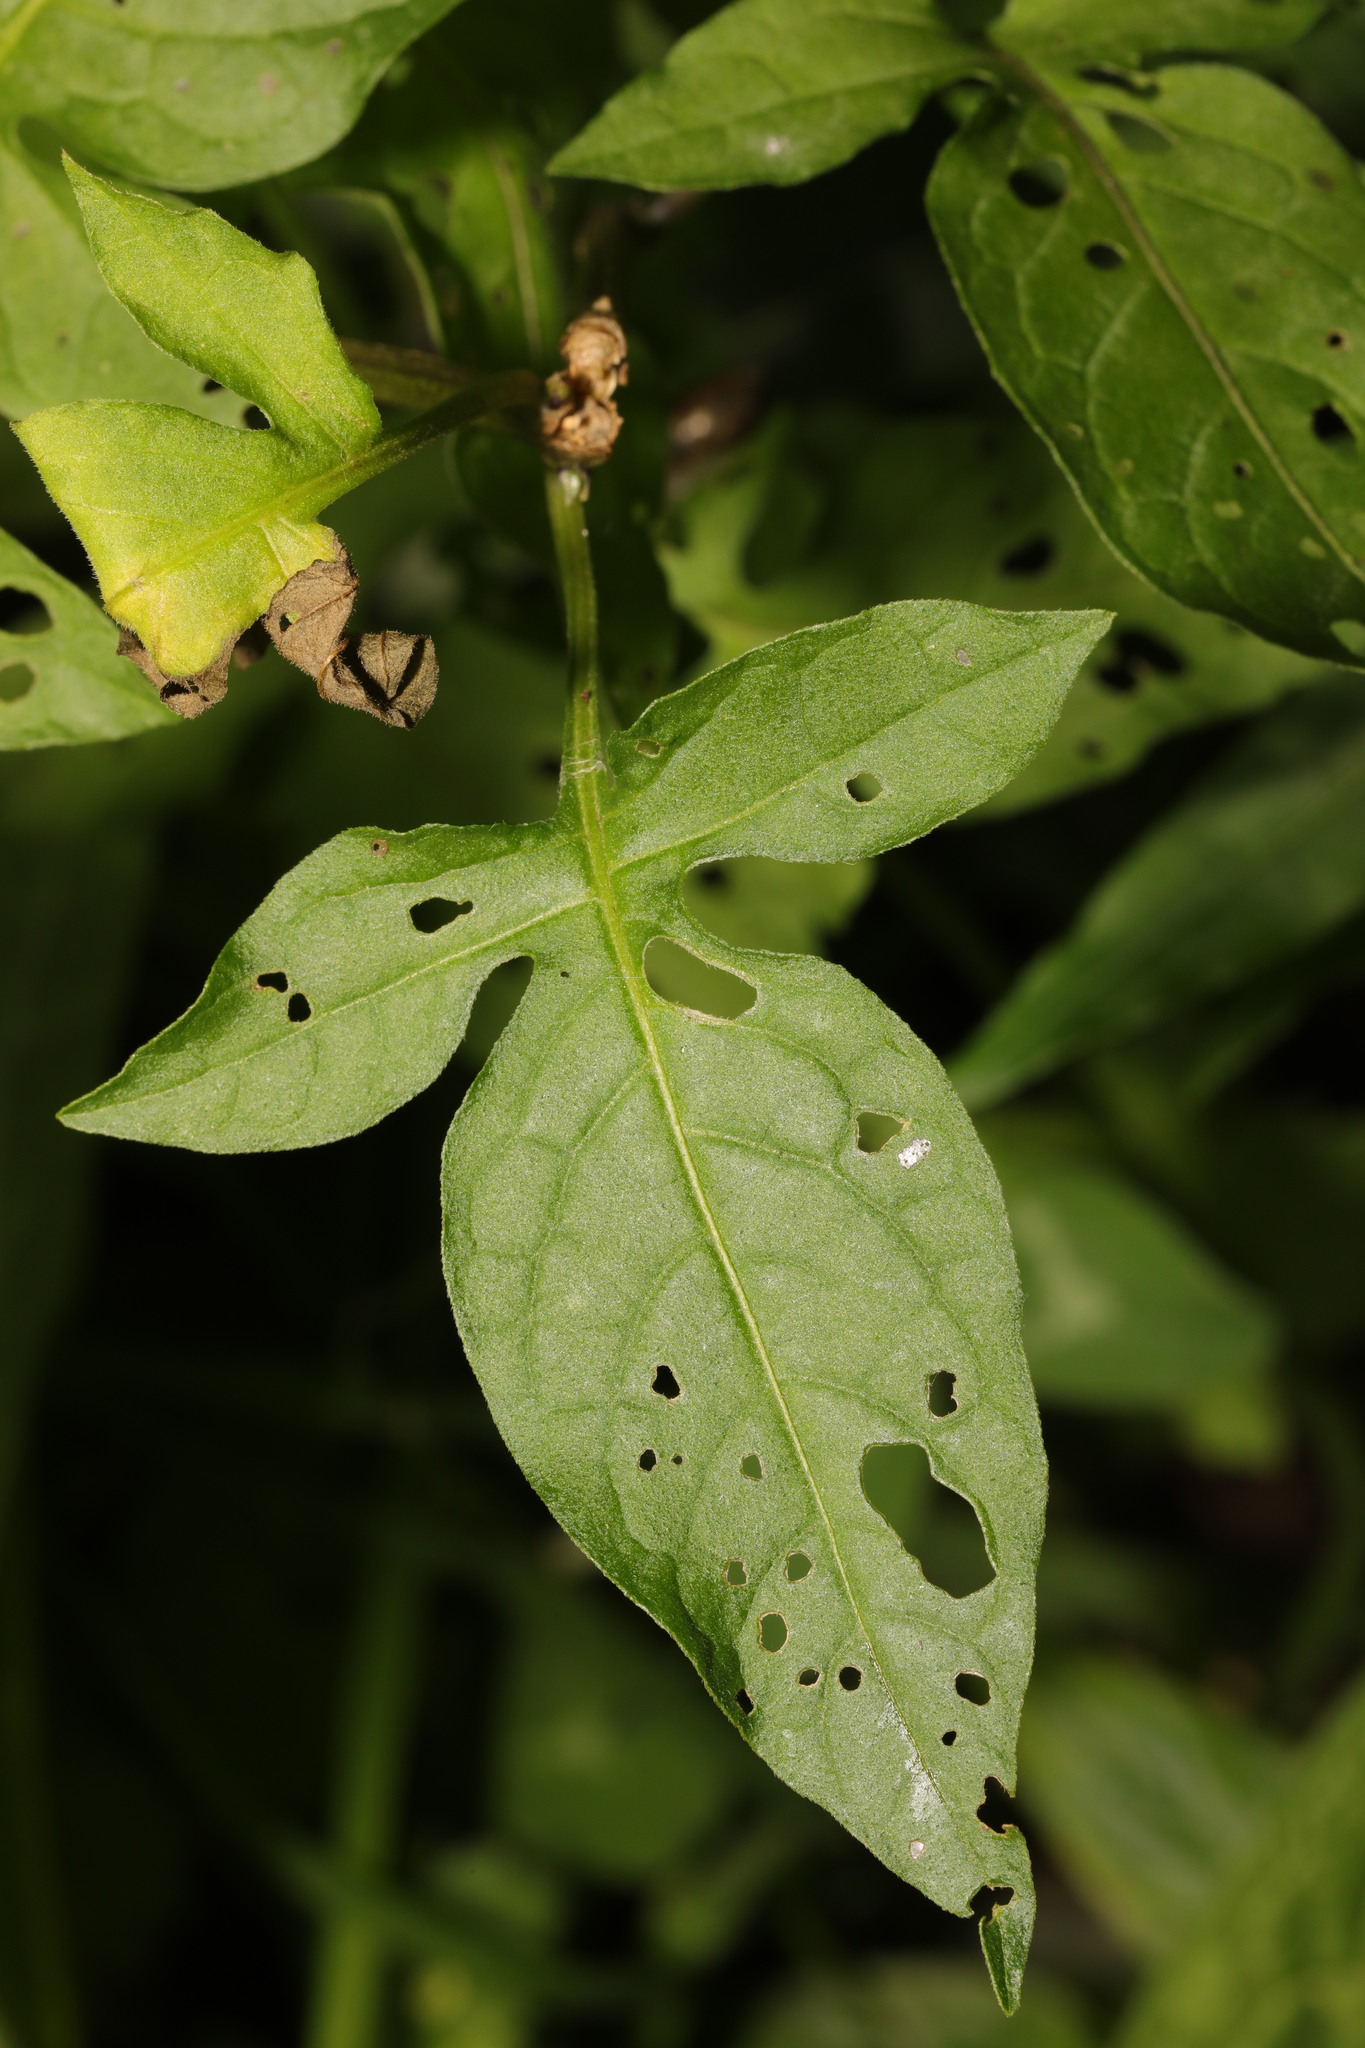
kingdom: Plantae
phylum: Tracheophyta
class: Magnoliopsida
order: Solanales
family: Solanaceae
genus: Solanum
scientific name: Solanum dulcamara
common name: Climbing nightshade
